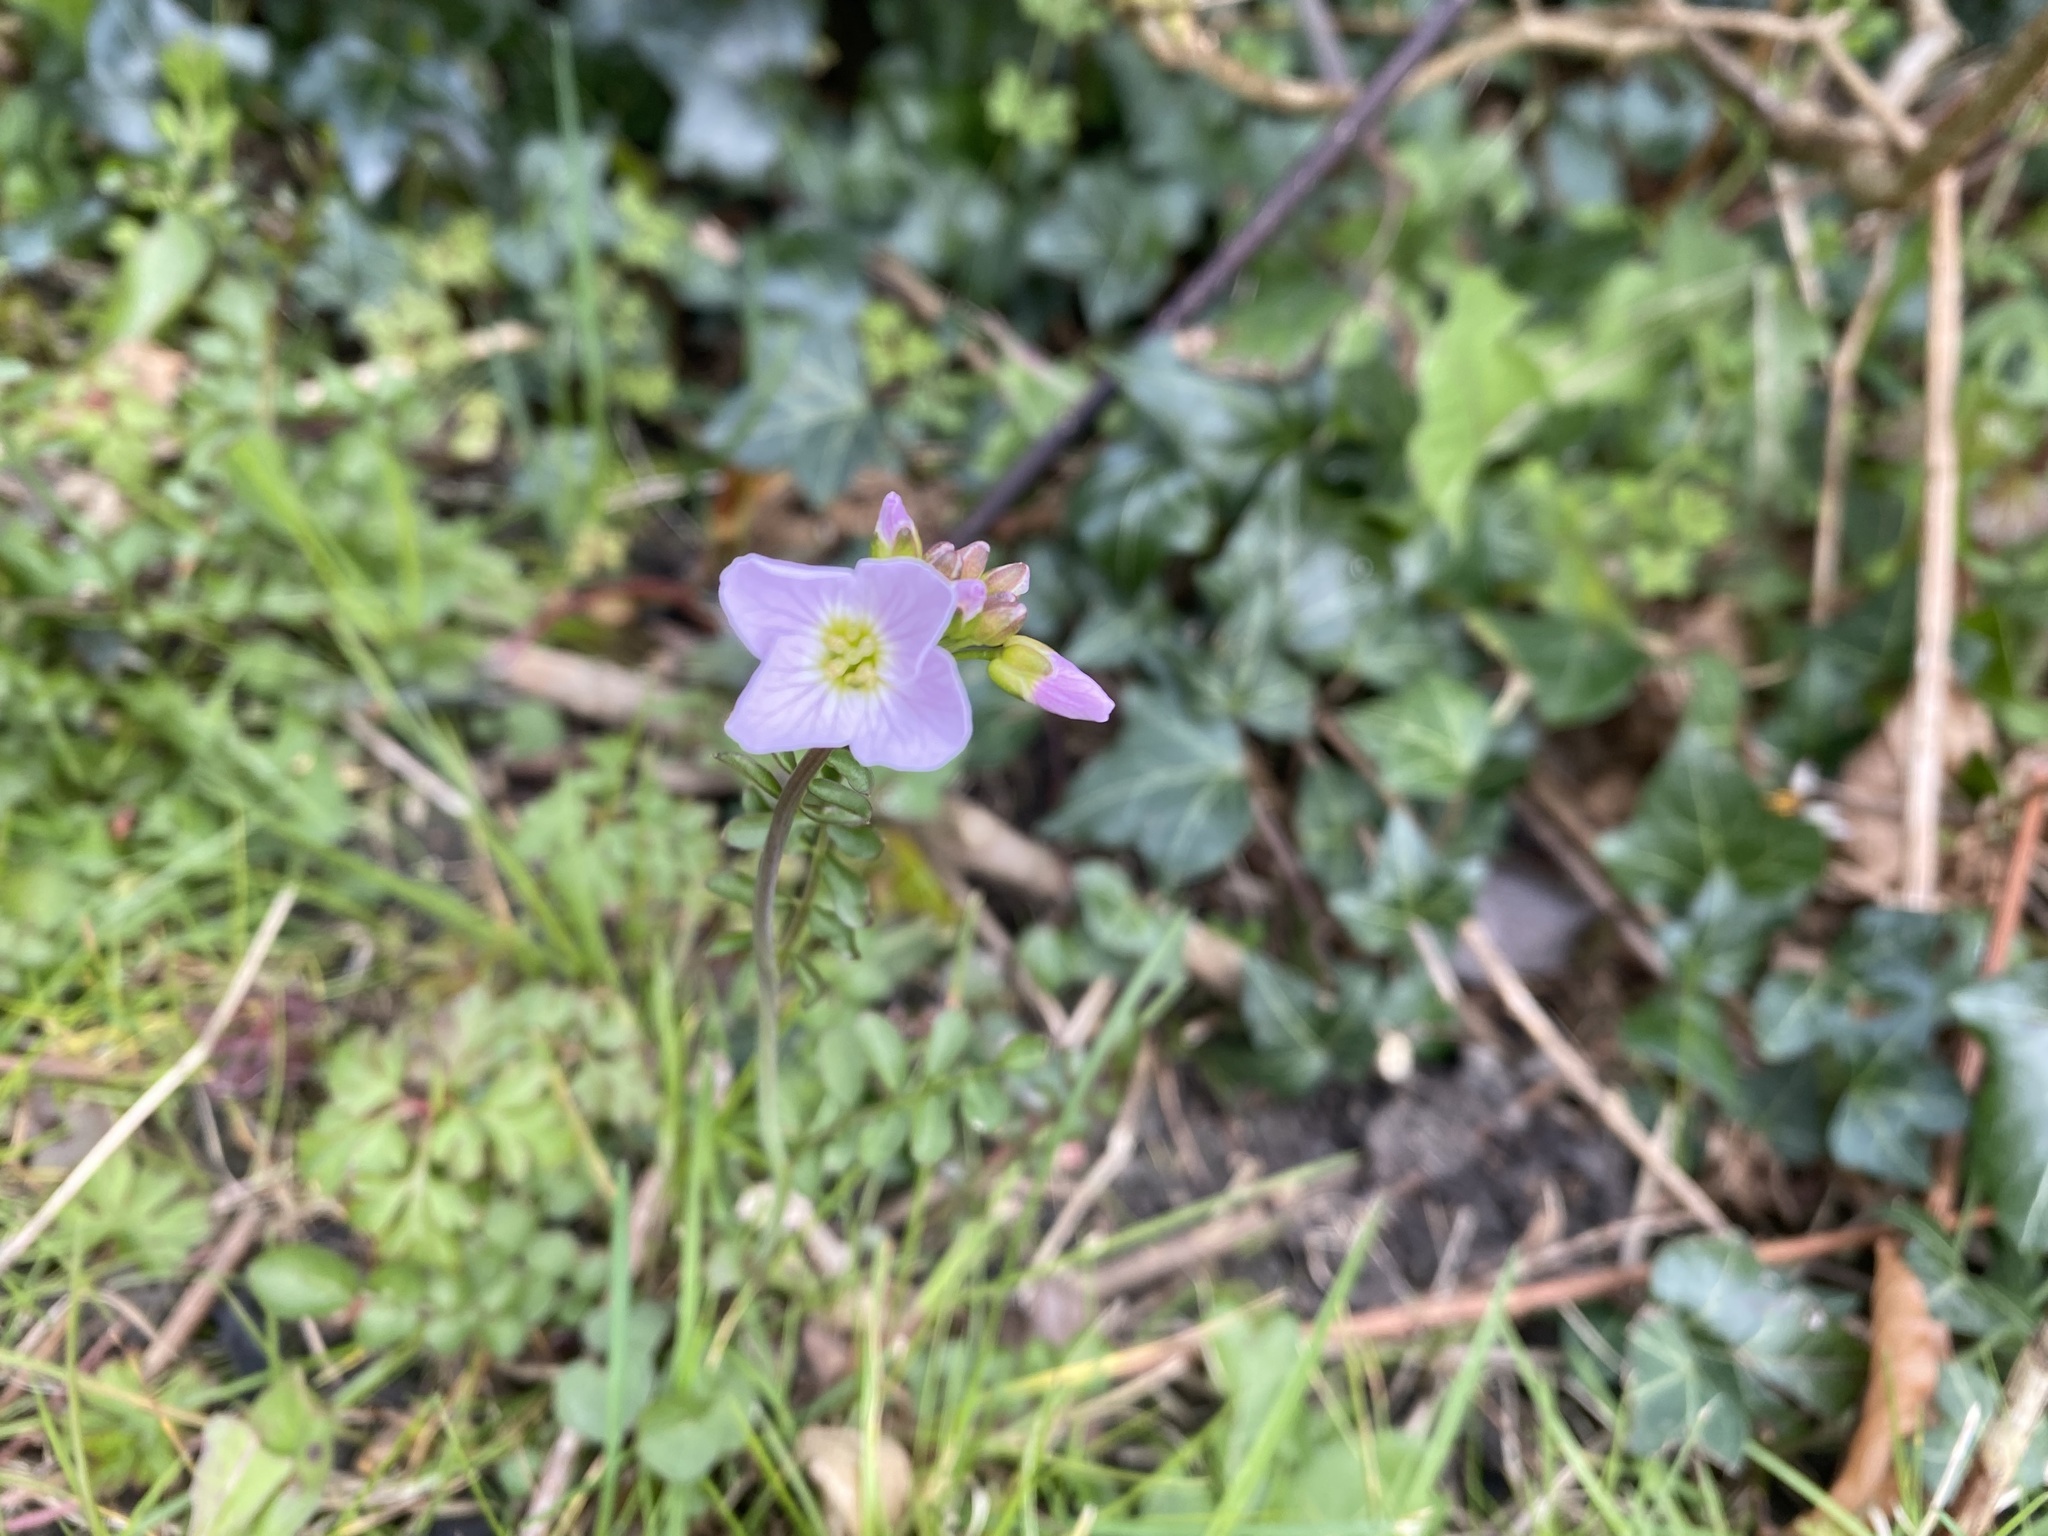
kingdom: Plantae
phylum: Tracheophyta
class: Magnoliopsida
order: Brassicales
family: Brassicaceae
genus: Cardamine
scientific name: Cardamine pratensis
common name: Cuckoo flower
